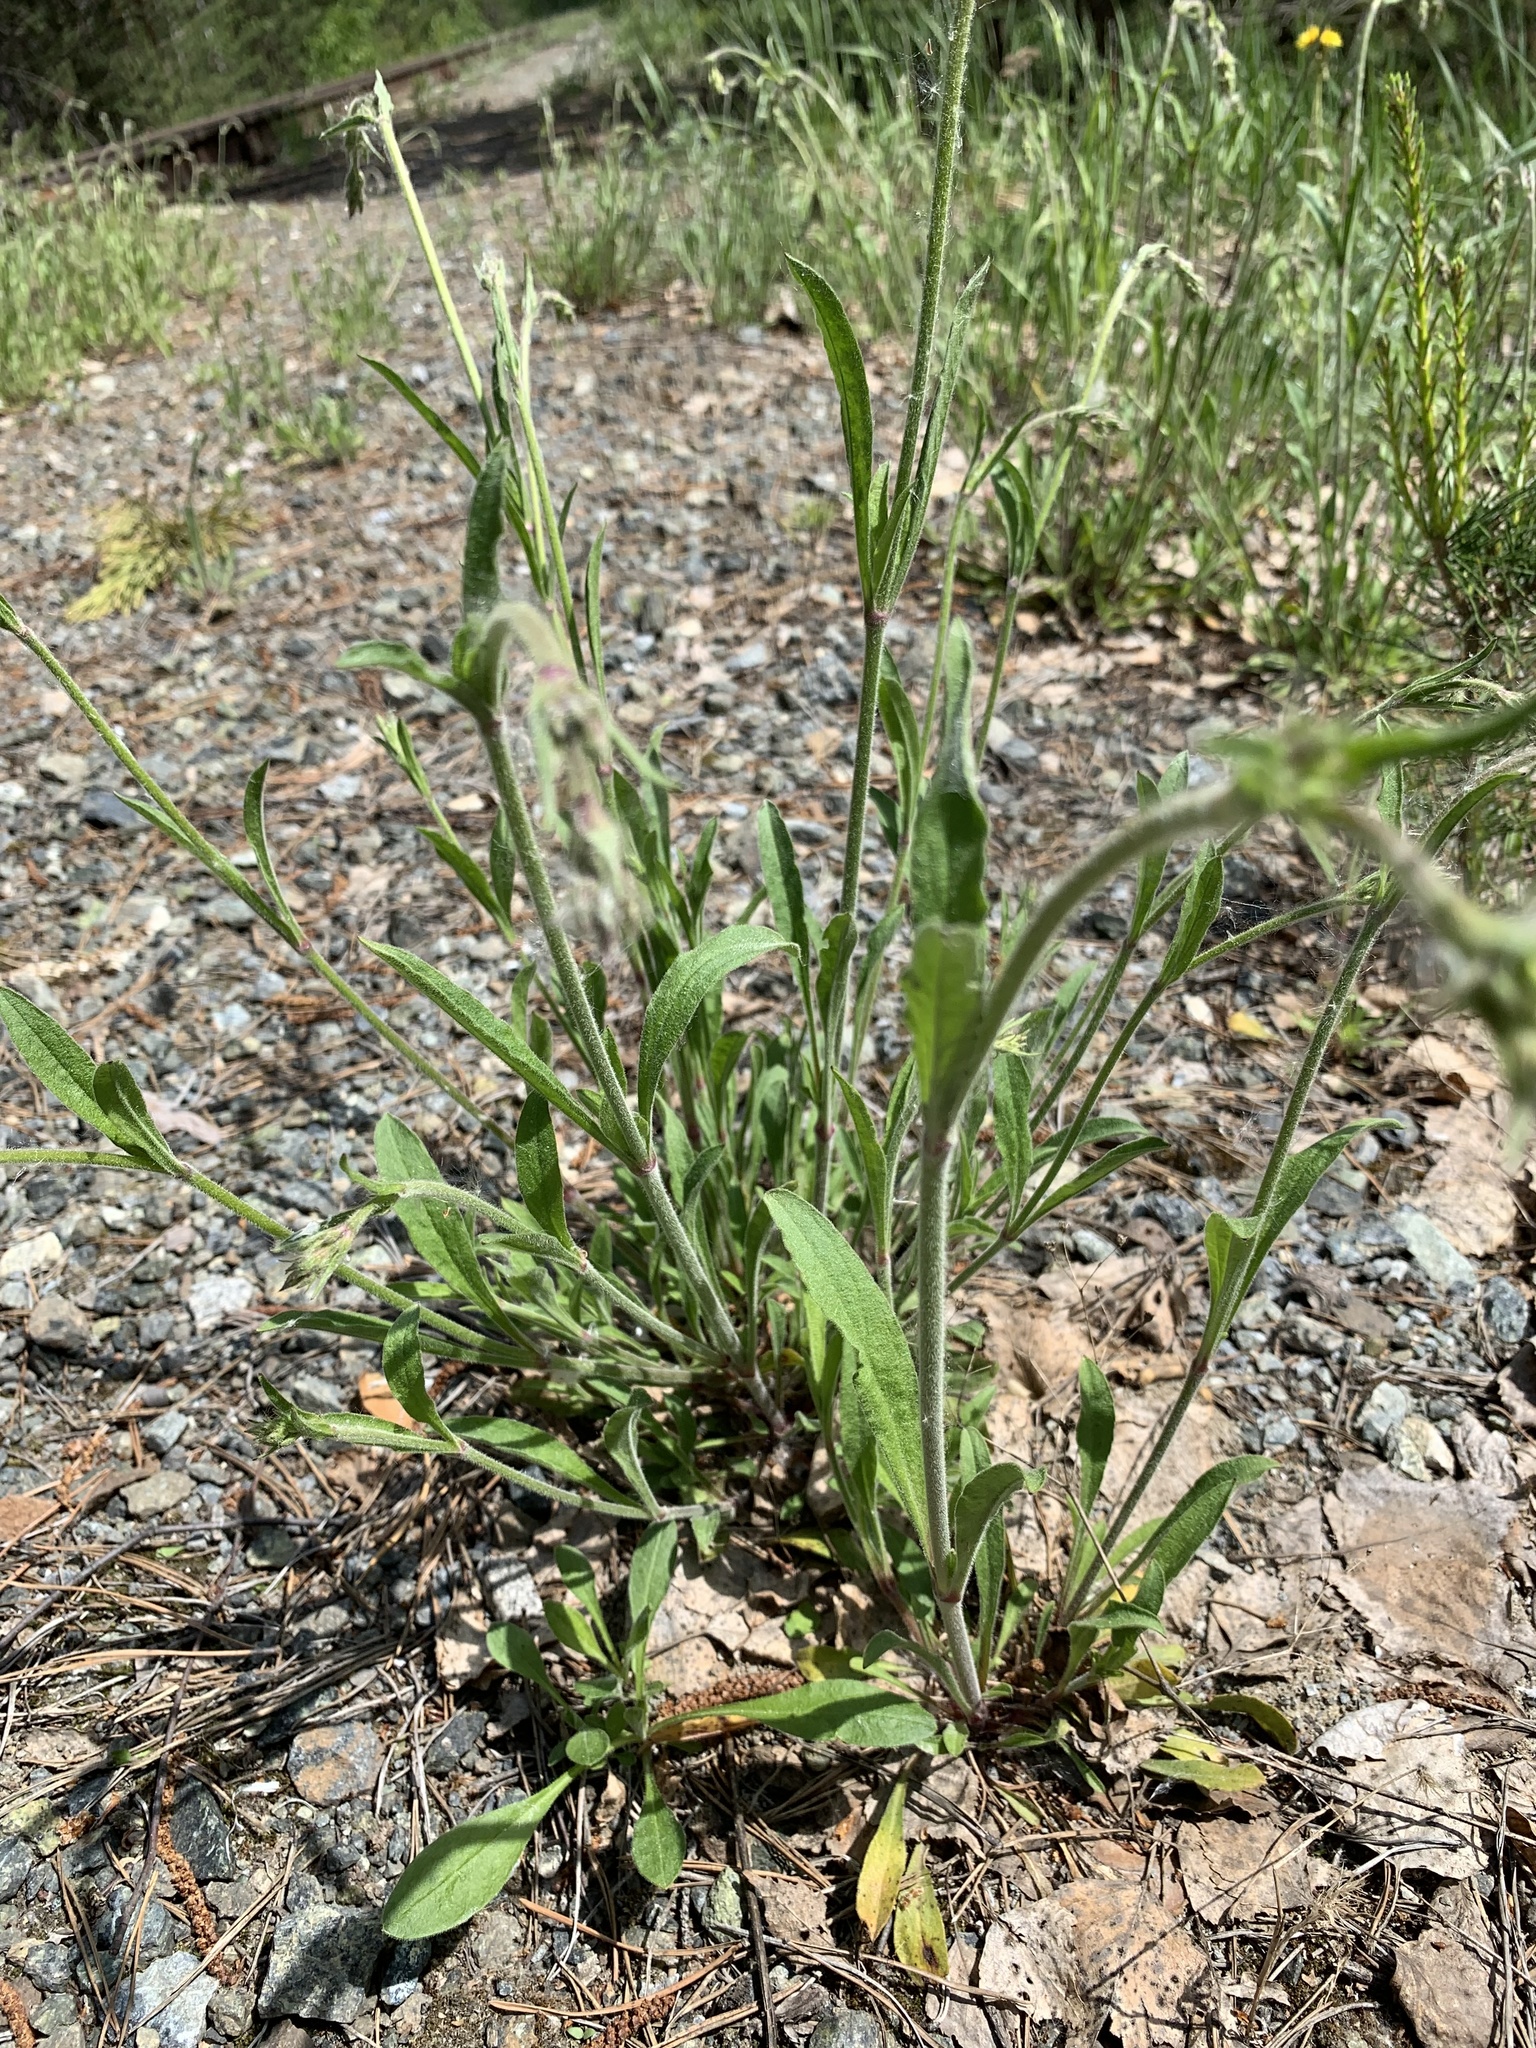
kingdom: Plantae
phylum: Tracheophyta
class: Magnoliopsida
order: Caryophyllales
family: Caryophyllaceae
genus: Silene
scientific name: Silene nutans
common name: Nottingham catchfly
